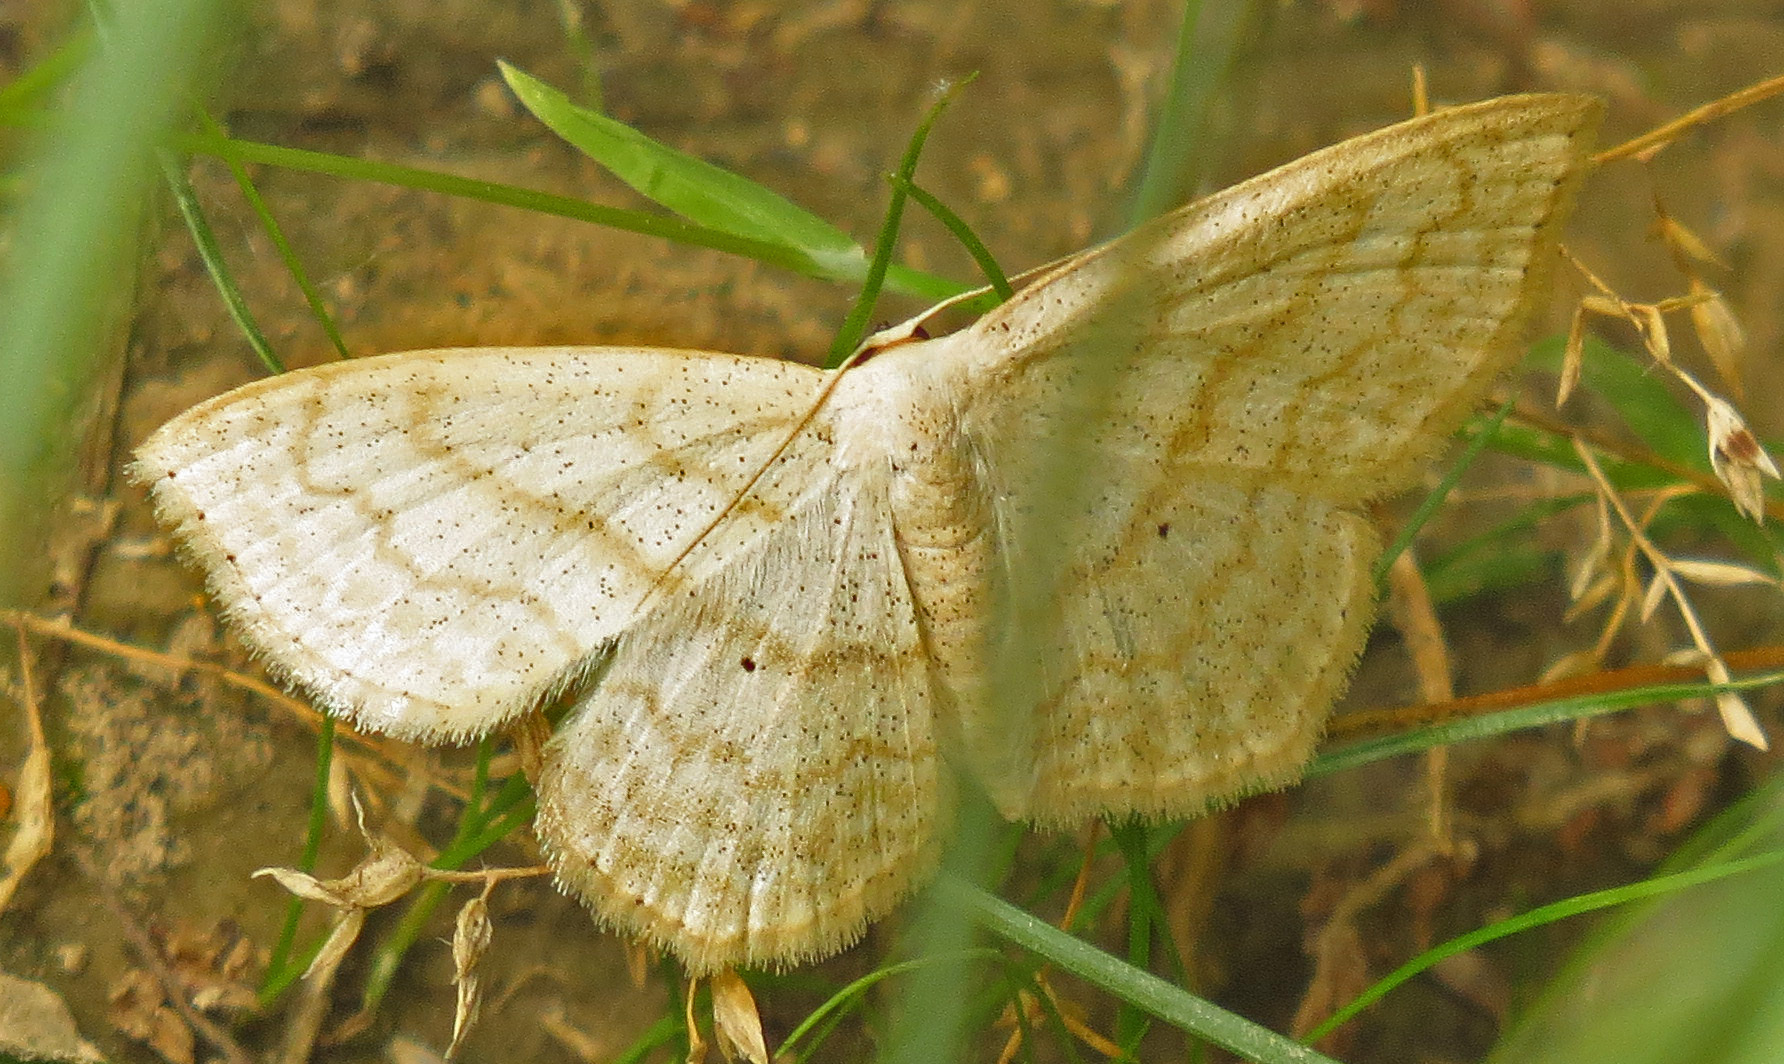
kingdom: Animalia
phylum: Arthropoda
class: Insecta
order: Lepidoptera
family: Geometridae
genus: Scopula
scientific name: Scopula limboundata
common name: Large lace border
